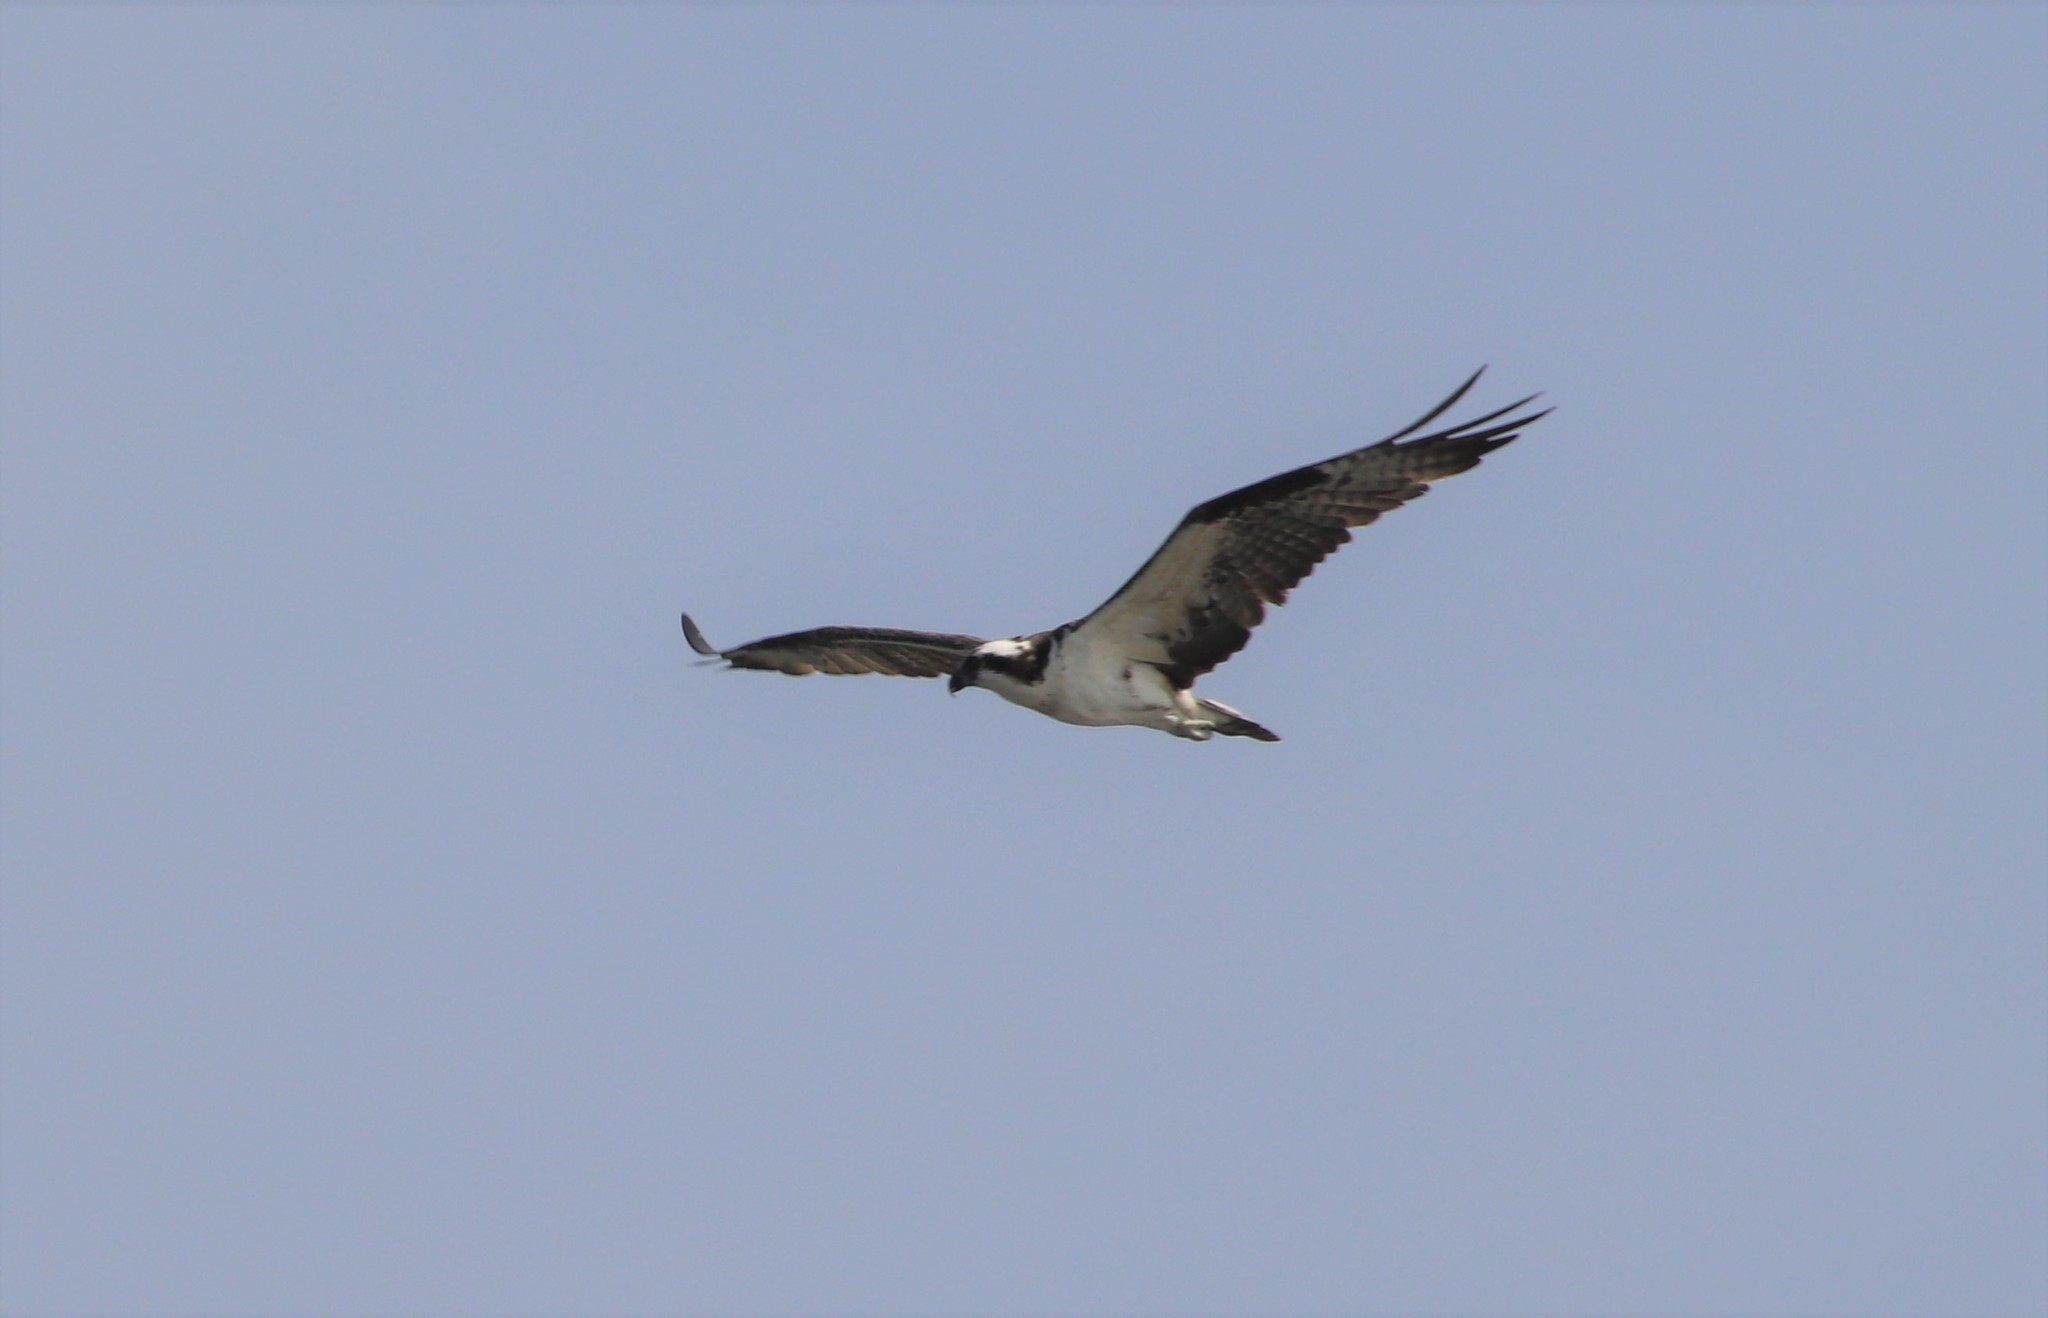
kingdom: Animalia
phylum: Chordata
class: Aves
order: Accipitriformes
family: Pandionidae
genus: Pandion
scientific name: Pandion haliaetus
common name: Osprey
